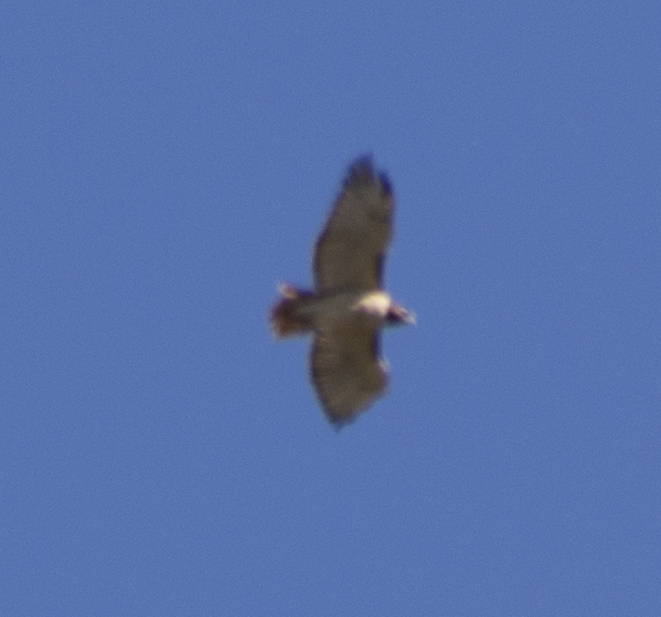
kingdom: Animalia
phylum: Chordata
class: Aves
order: Accipitriformes
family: Accipitridae
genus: Buteo
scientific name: Buteo jamaicensis
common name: Red-tailed hawk
